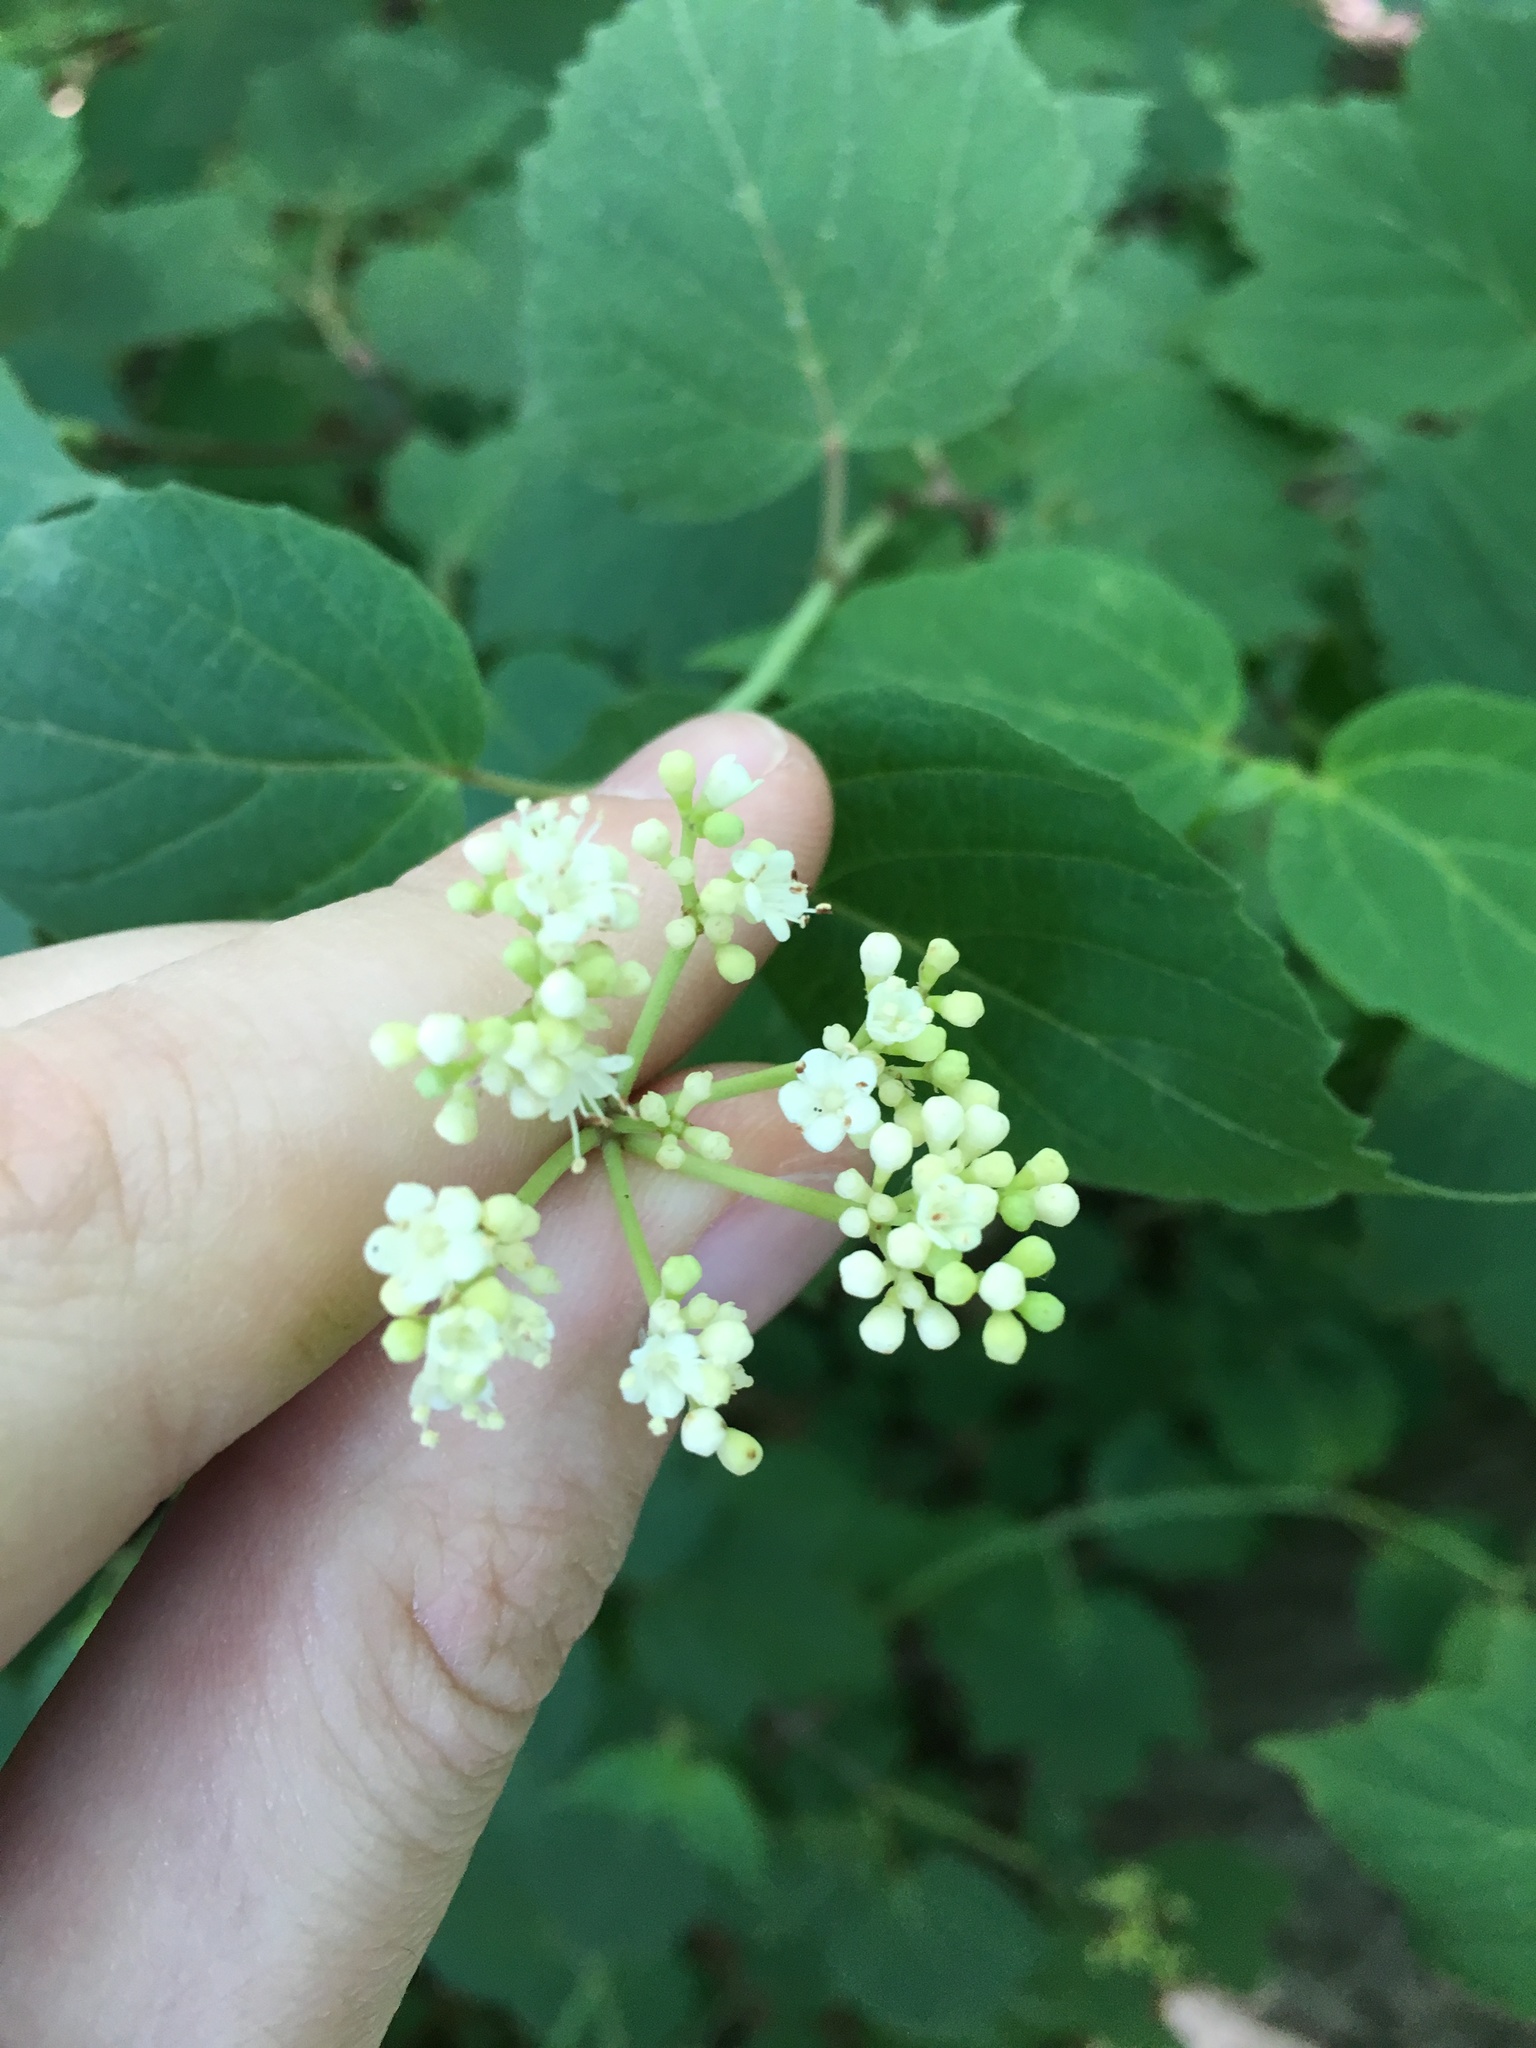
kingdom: Plantae
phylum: Tracheophyta
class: Magnoliopsida
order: Dipsacales
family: Viburnaceae
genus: Viburnum
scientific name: Viburnum acerifolium
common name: Dockmackie
